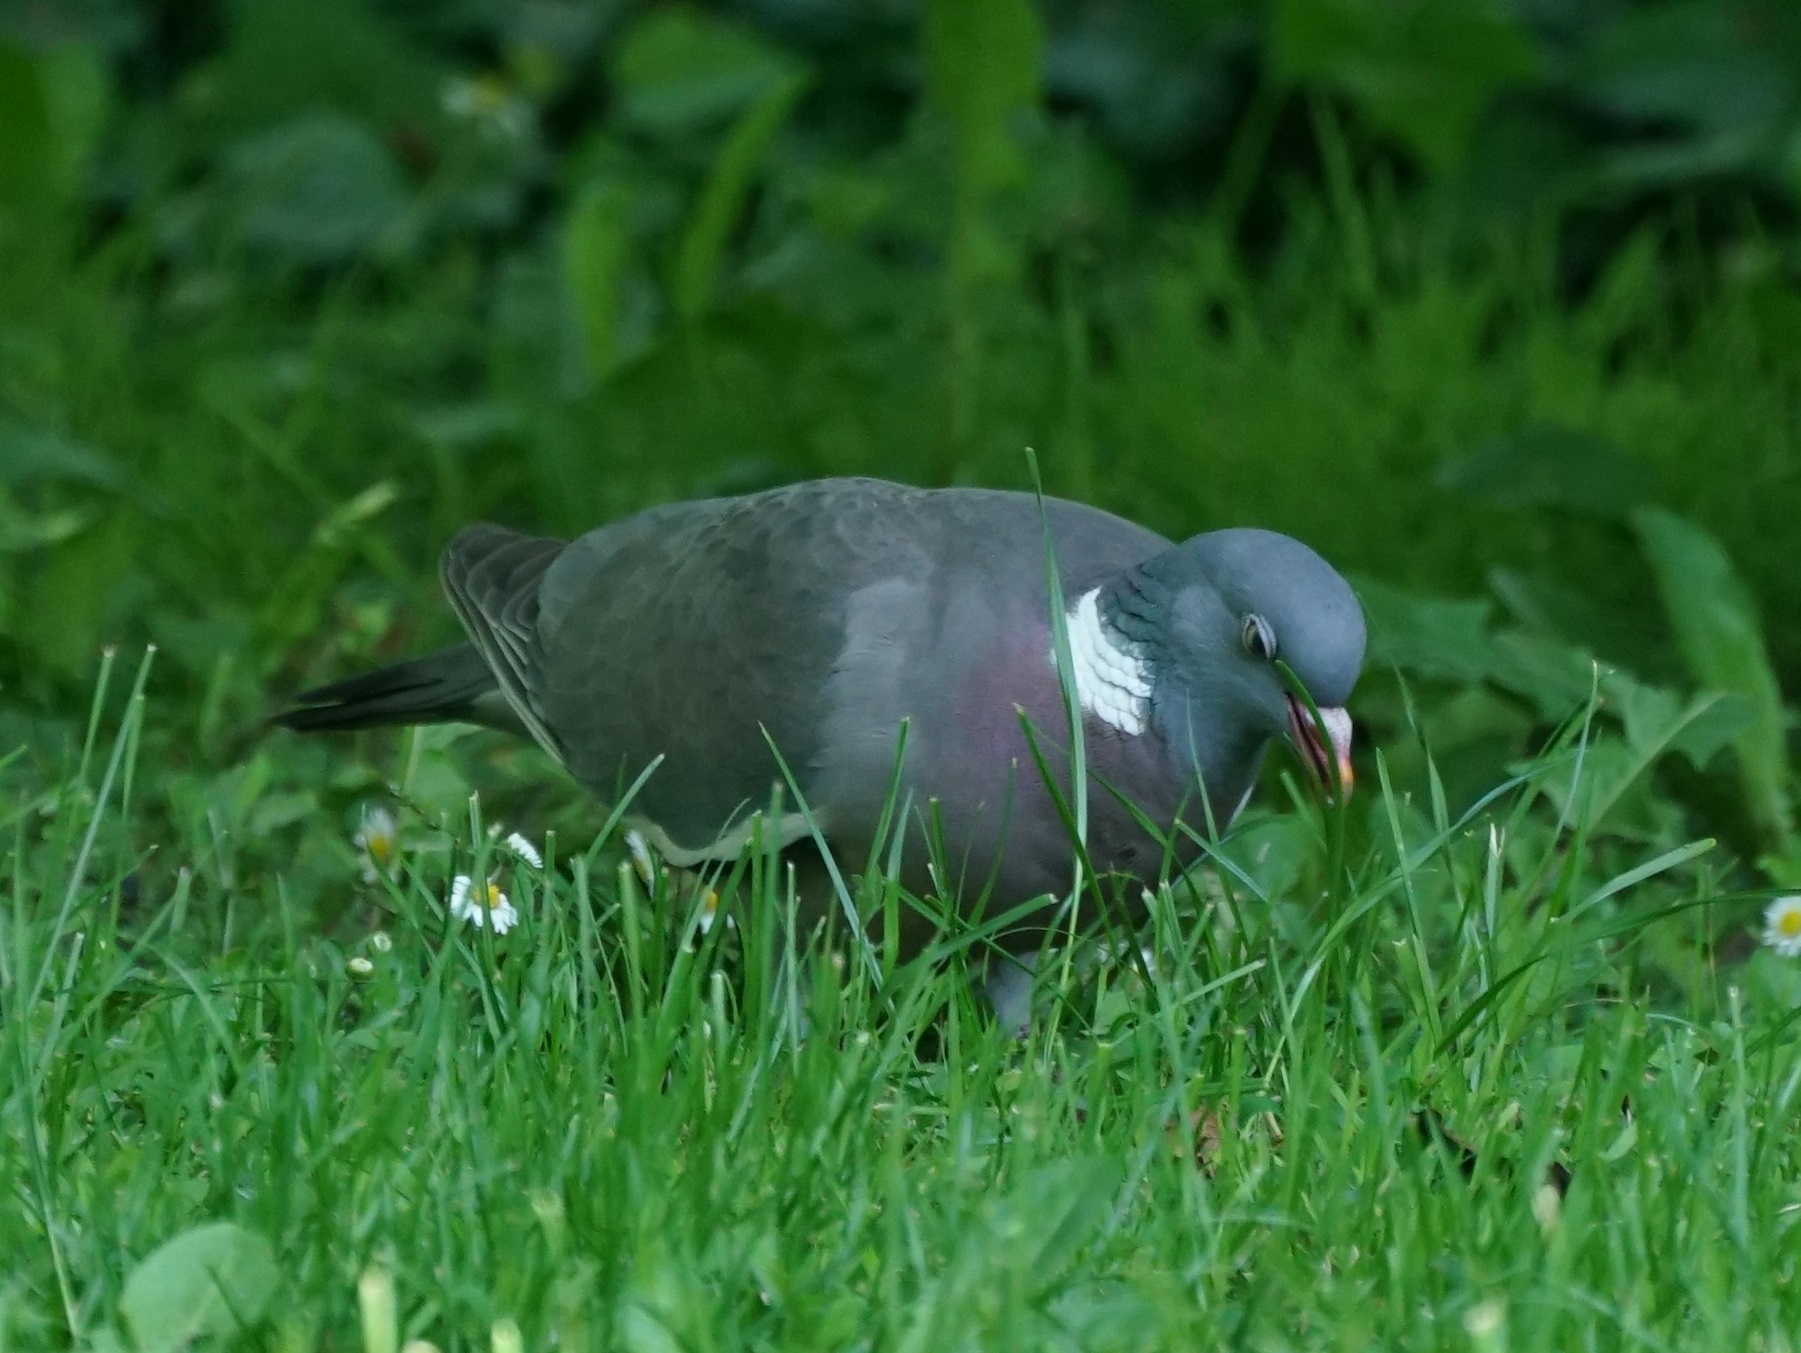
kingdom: Animalia
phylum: Chordata
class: Aves
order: Columbiformes
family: Columbidae
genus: Columba
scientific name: Columba palumbus
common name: Common wood pigeon
